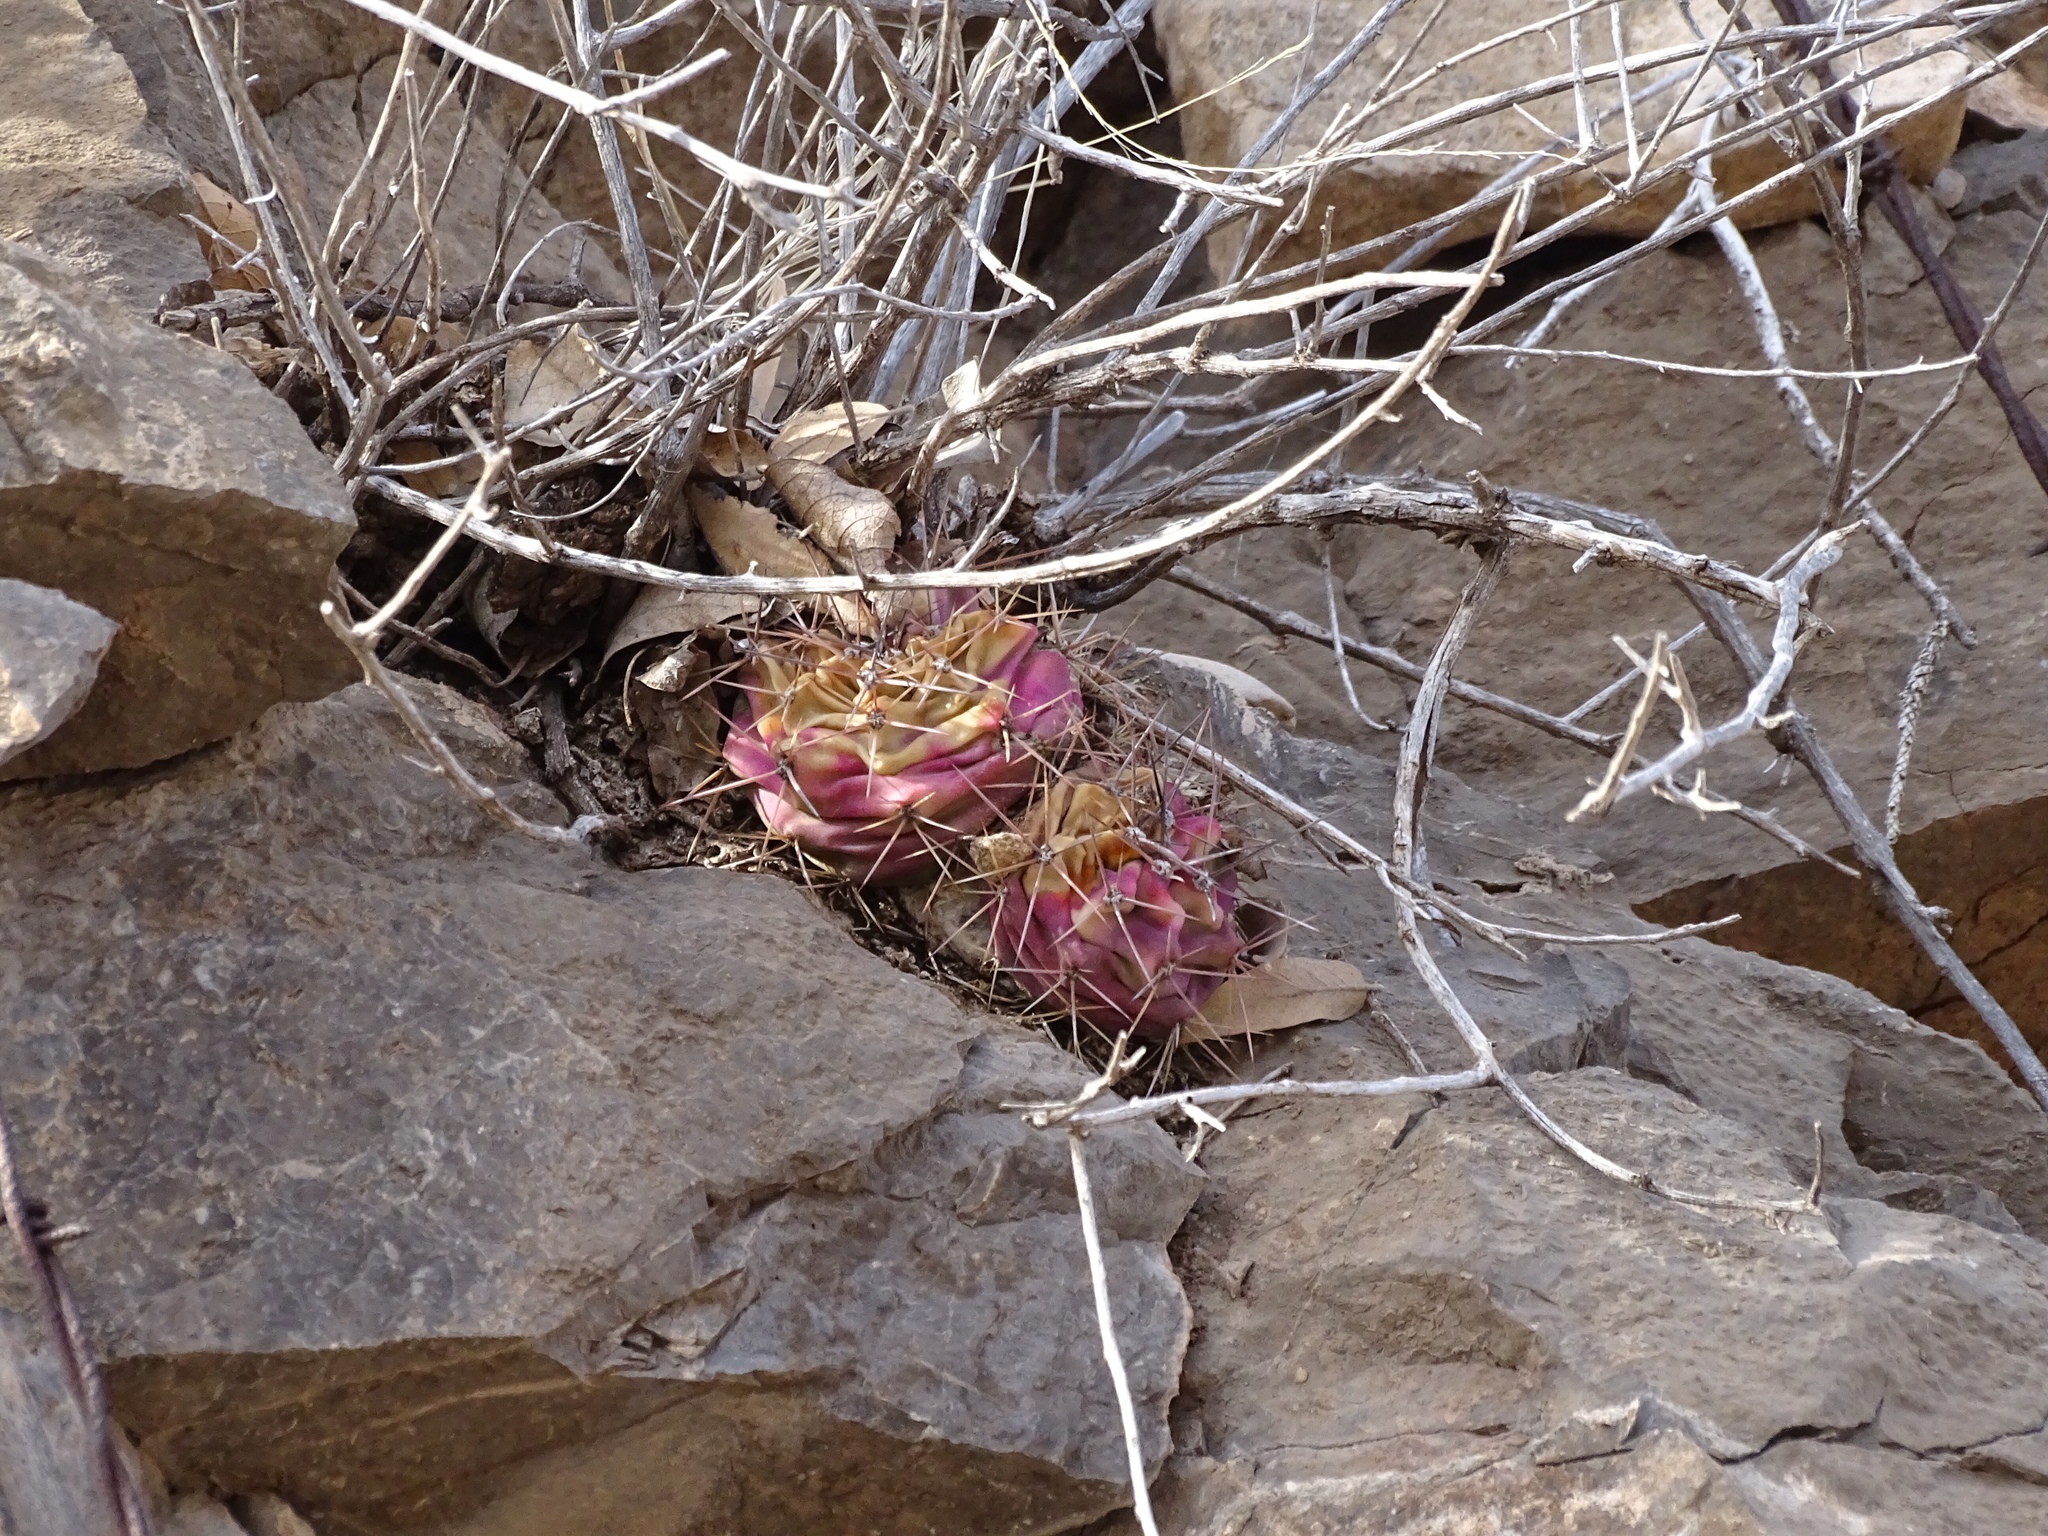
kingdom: Plantae
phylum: Tracheophyta
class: Magnoliopsida
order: Caryophyllales
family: Cactaceae
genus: Echinocereus
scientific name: Echinocereus coccineus
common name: Scarlet hedgehog cactus
